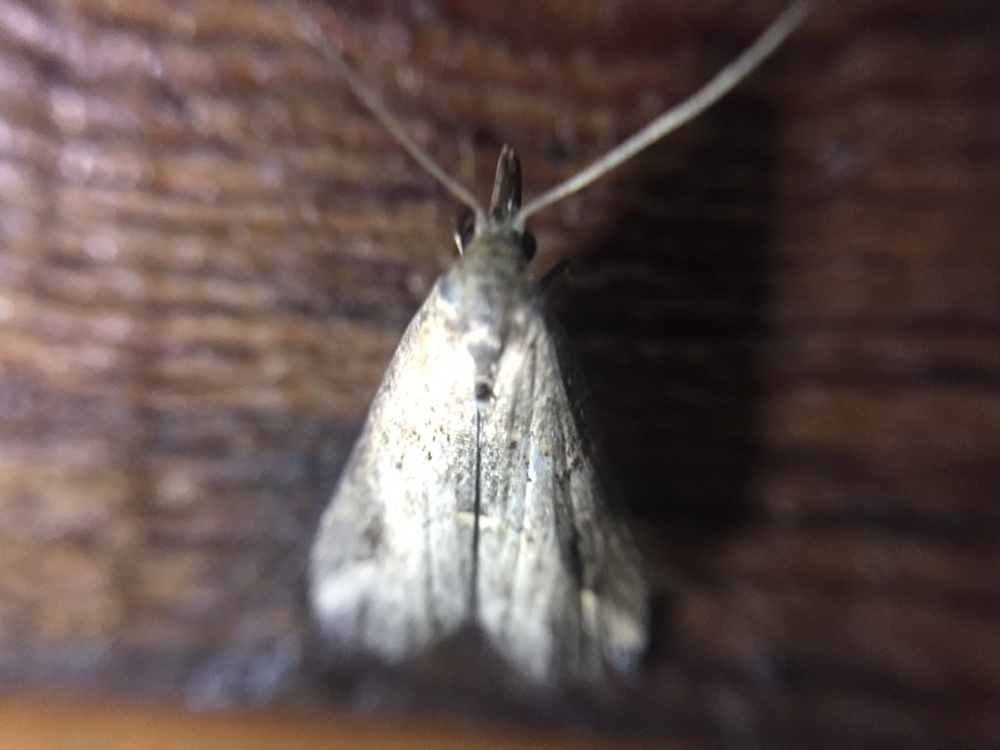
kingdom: Animalia
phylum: Arthropoda
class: Insecta
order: Lepidoptera
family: Erebidae
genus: Schrankia
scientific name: Schrankia costaestrigalis
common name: Pinion-streaked snout
